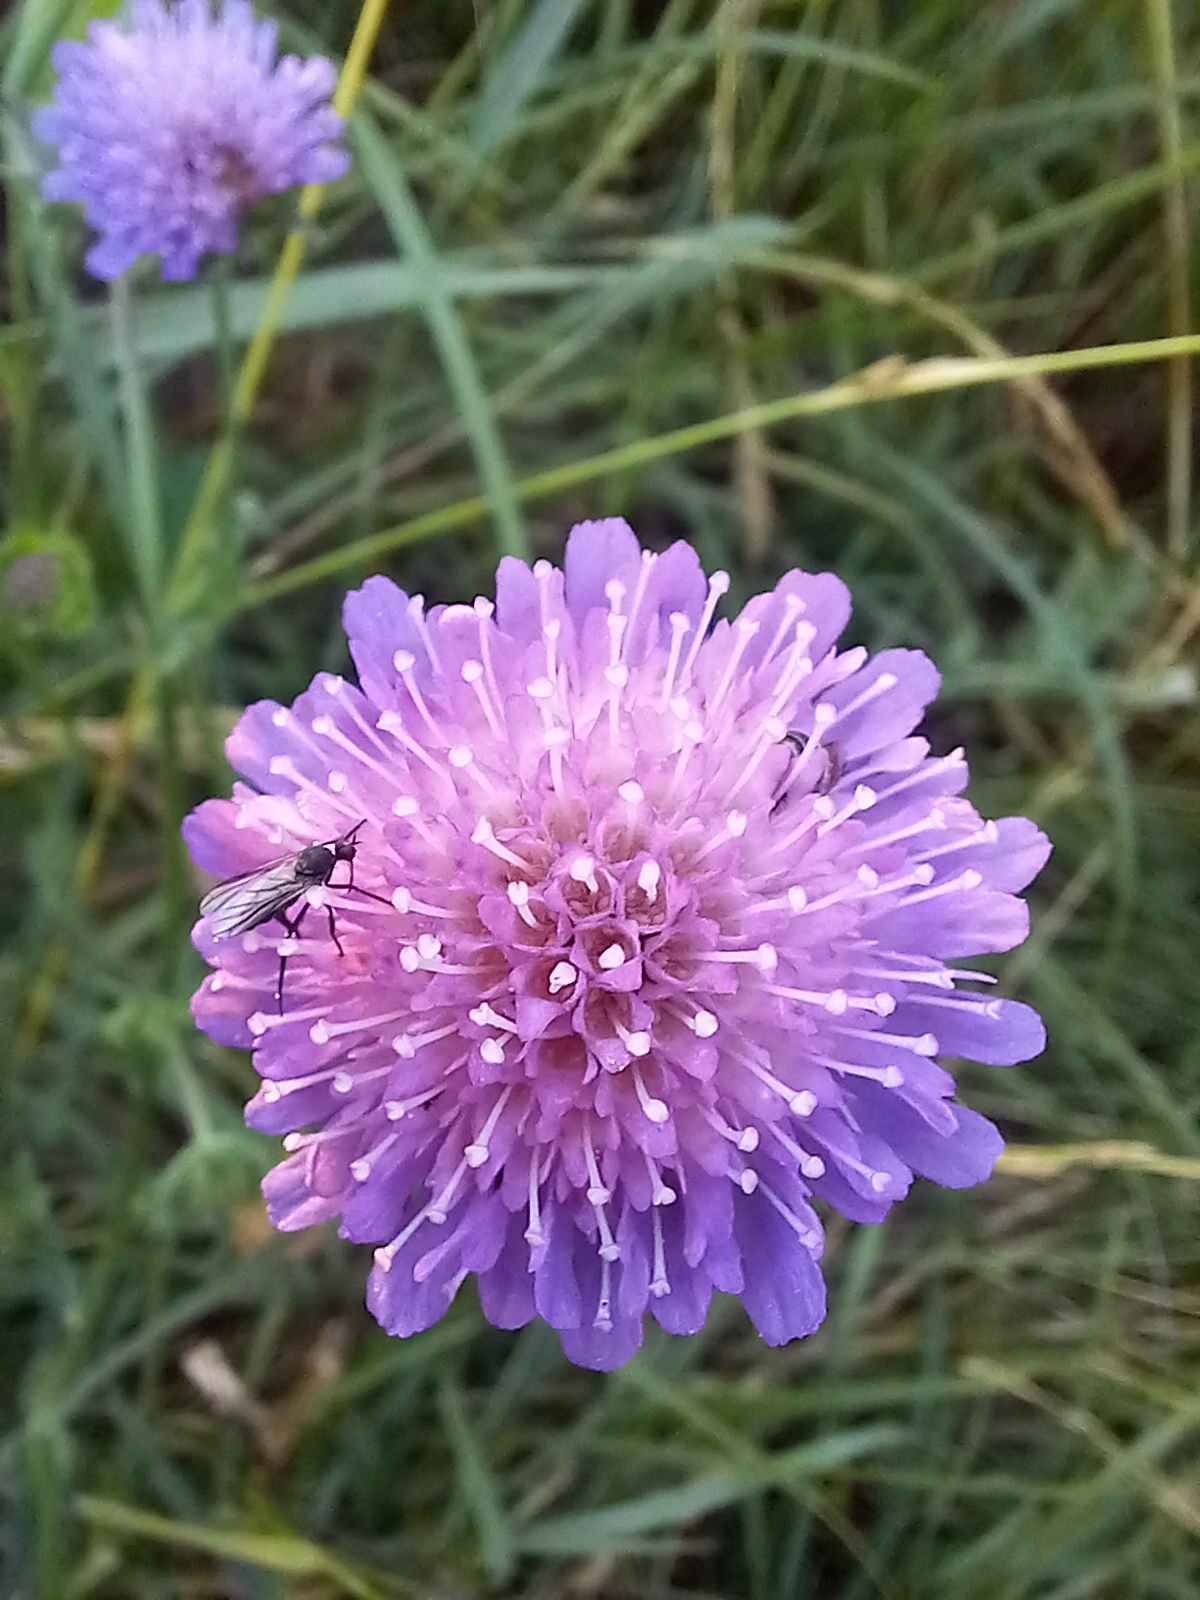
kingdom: Plantae
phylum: Tracheophyta
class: Magnoliopsida
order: Dipsacales
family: Caprifoliaceae
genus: Knautia
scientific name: Knautia arvensis
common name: Field scabiosa
